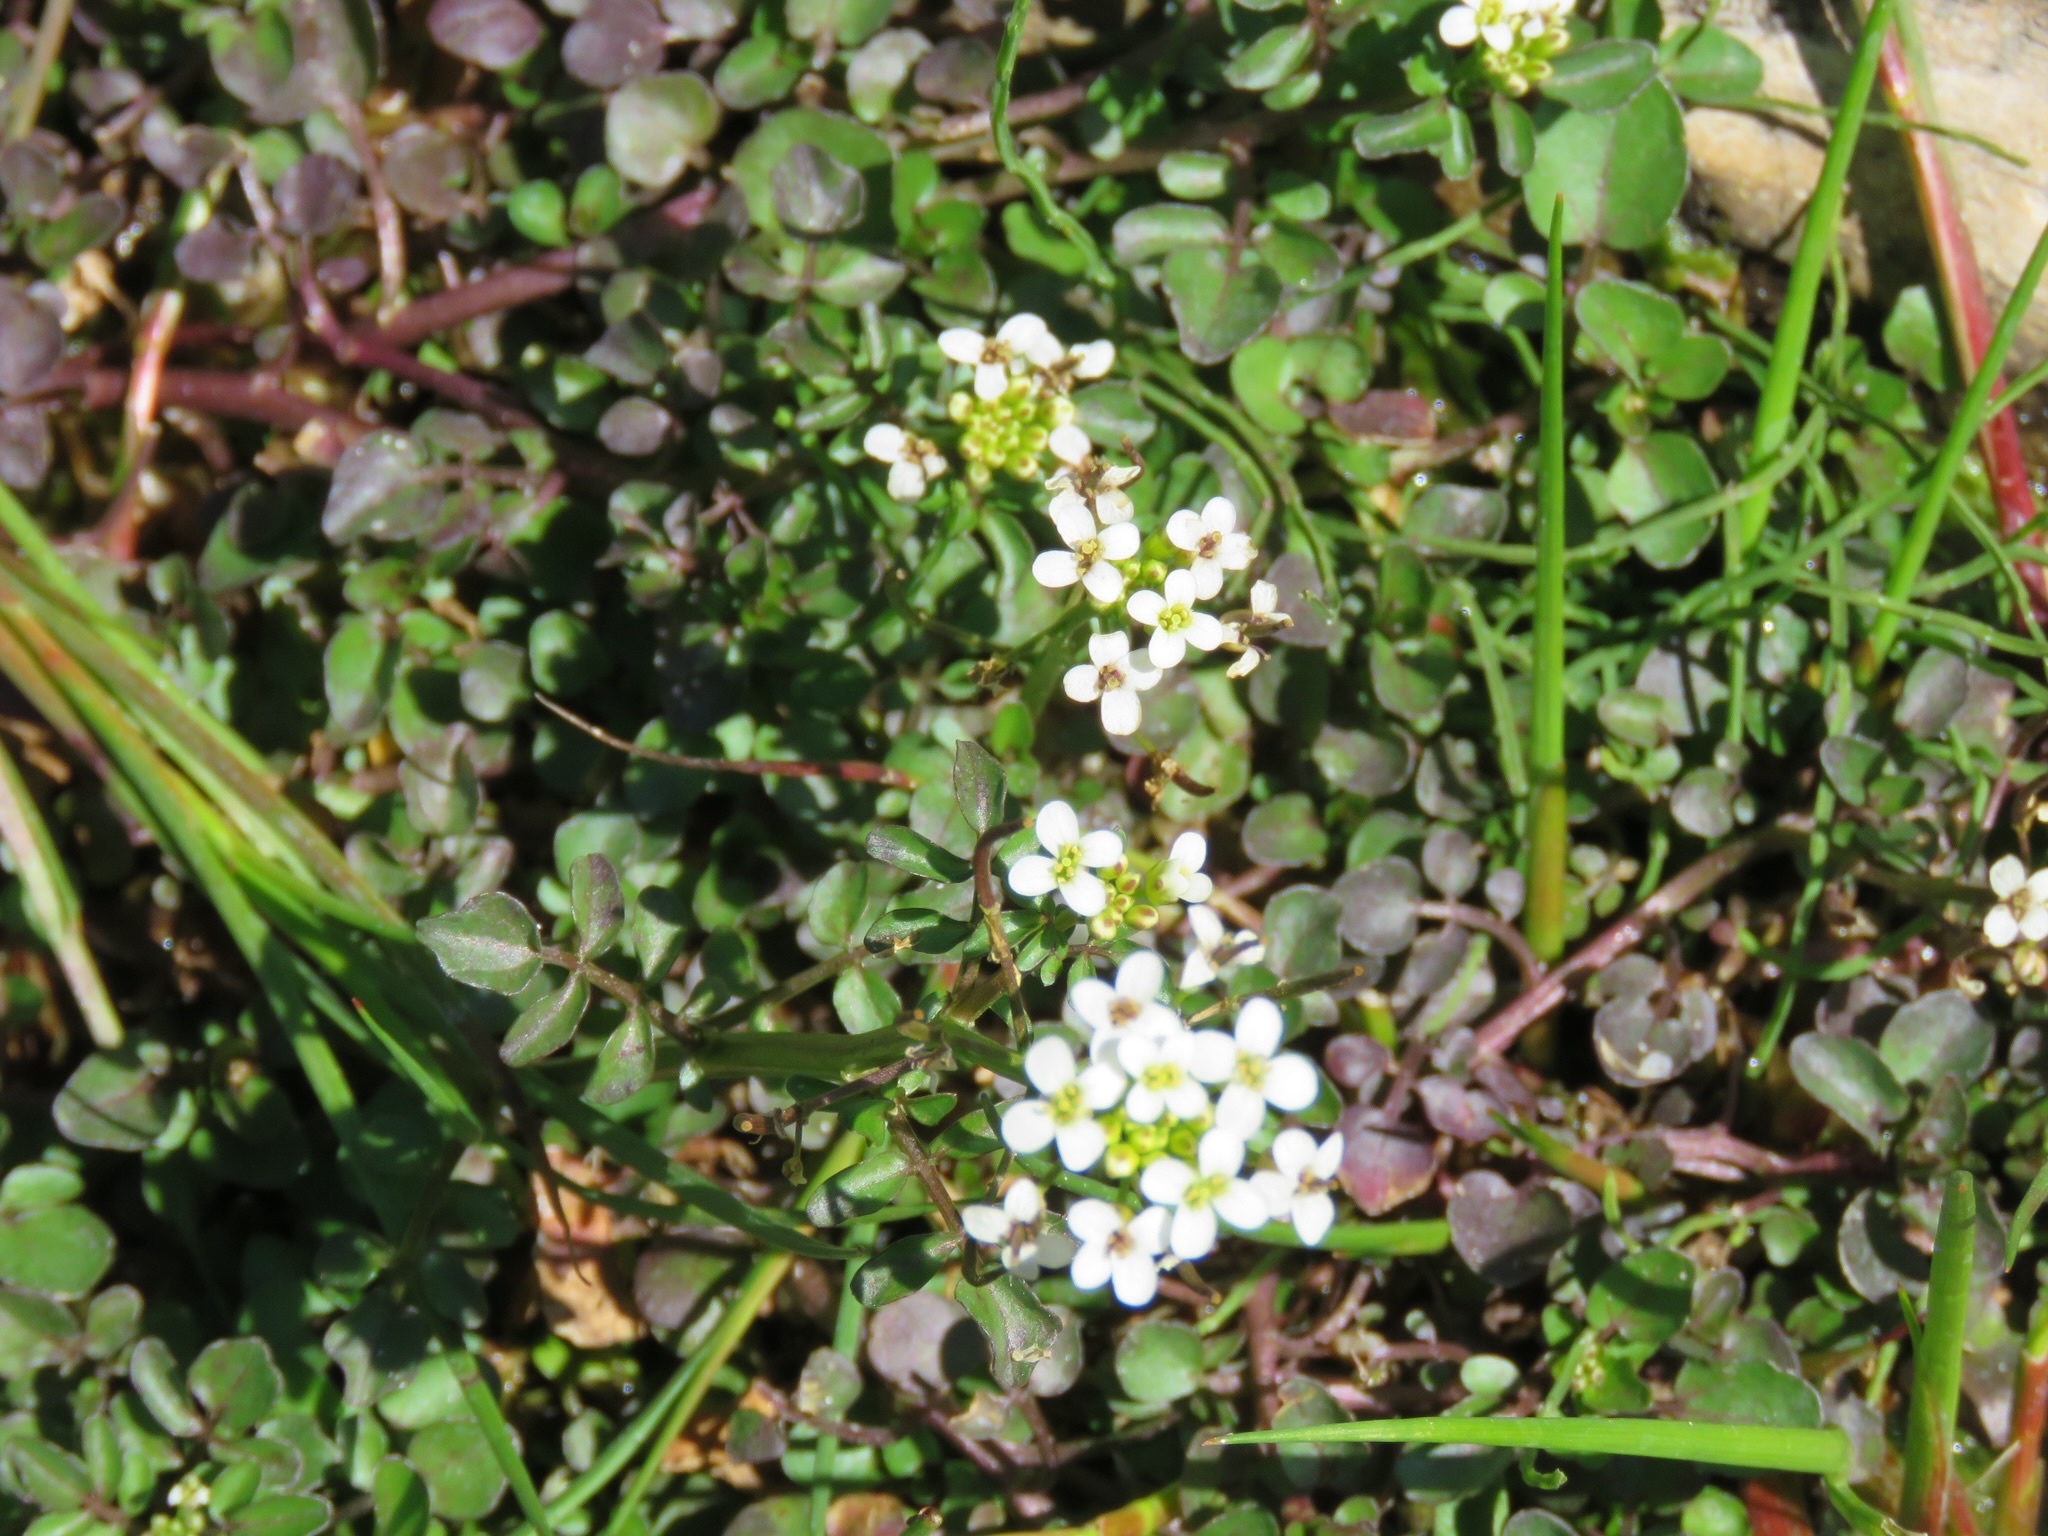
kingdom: Plantae
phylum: Tracheophyta
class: Magnoliopsida
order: Brassicales
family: Brassicaceae
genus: Nasturtium
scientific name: Nasturtium officinale
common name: Watercress
